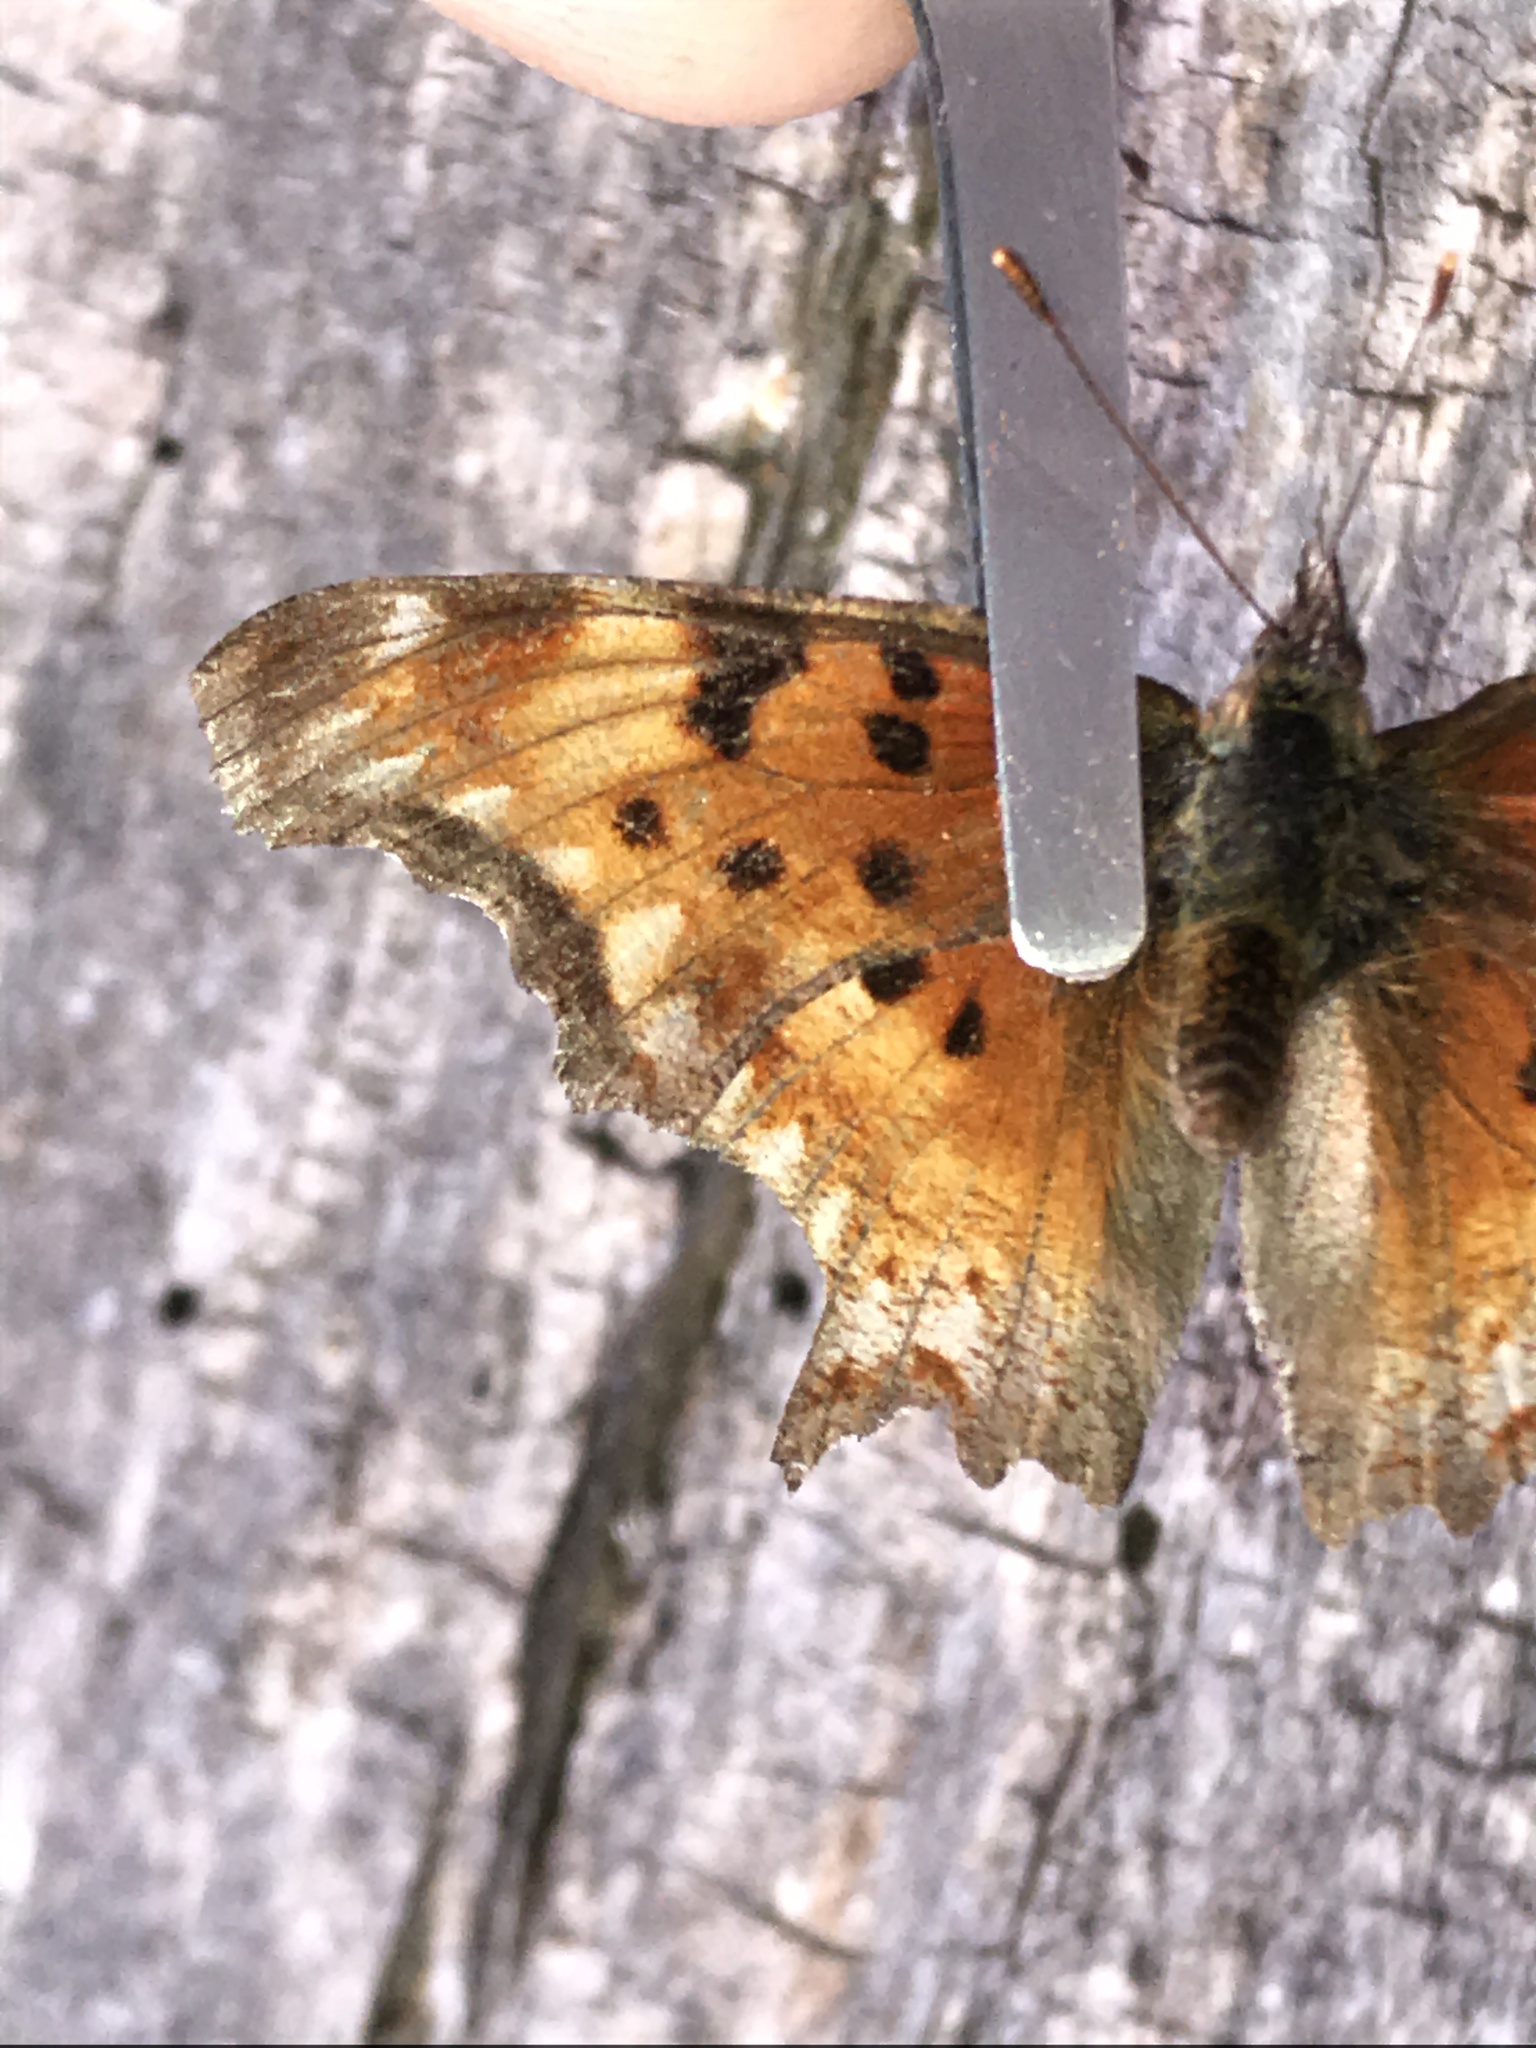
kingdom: Animalia
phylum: Arthropoda
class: Insecta
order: Lepidoptera
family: Nymphalidae
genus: Polygonia
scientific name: Polygonia gracilis
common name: Hoary comma
